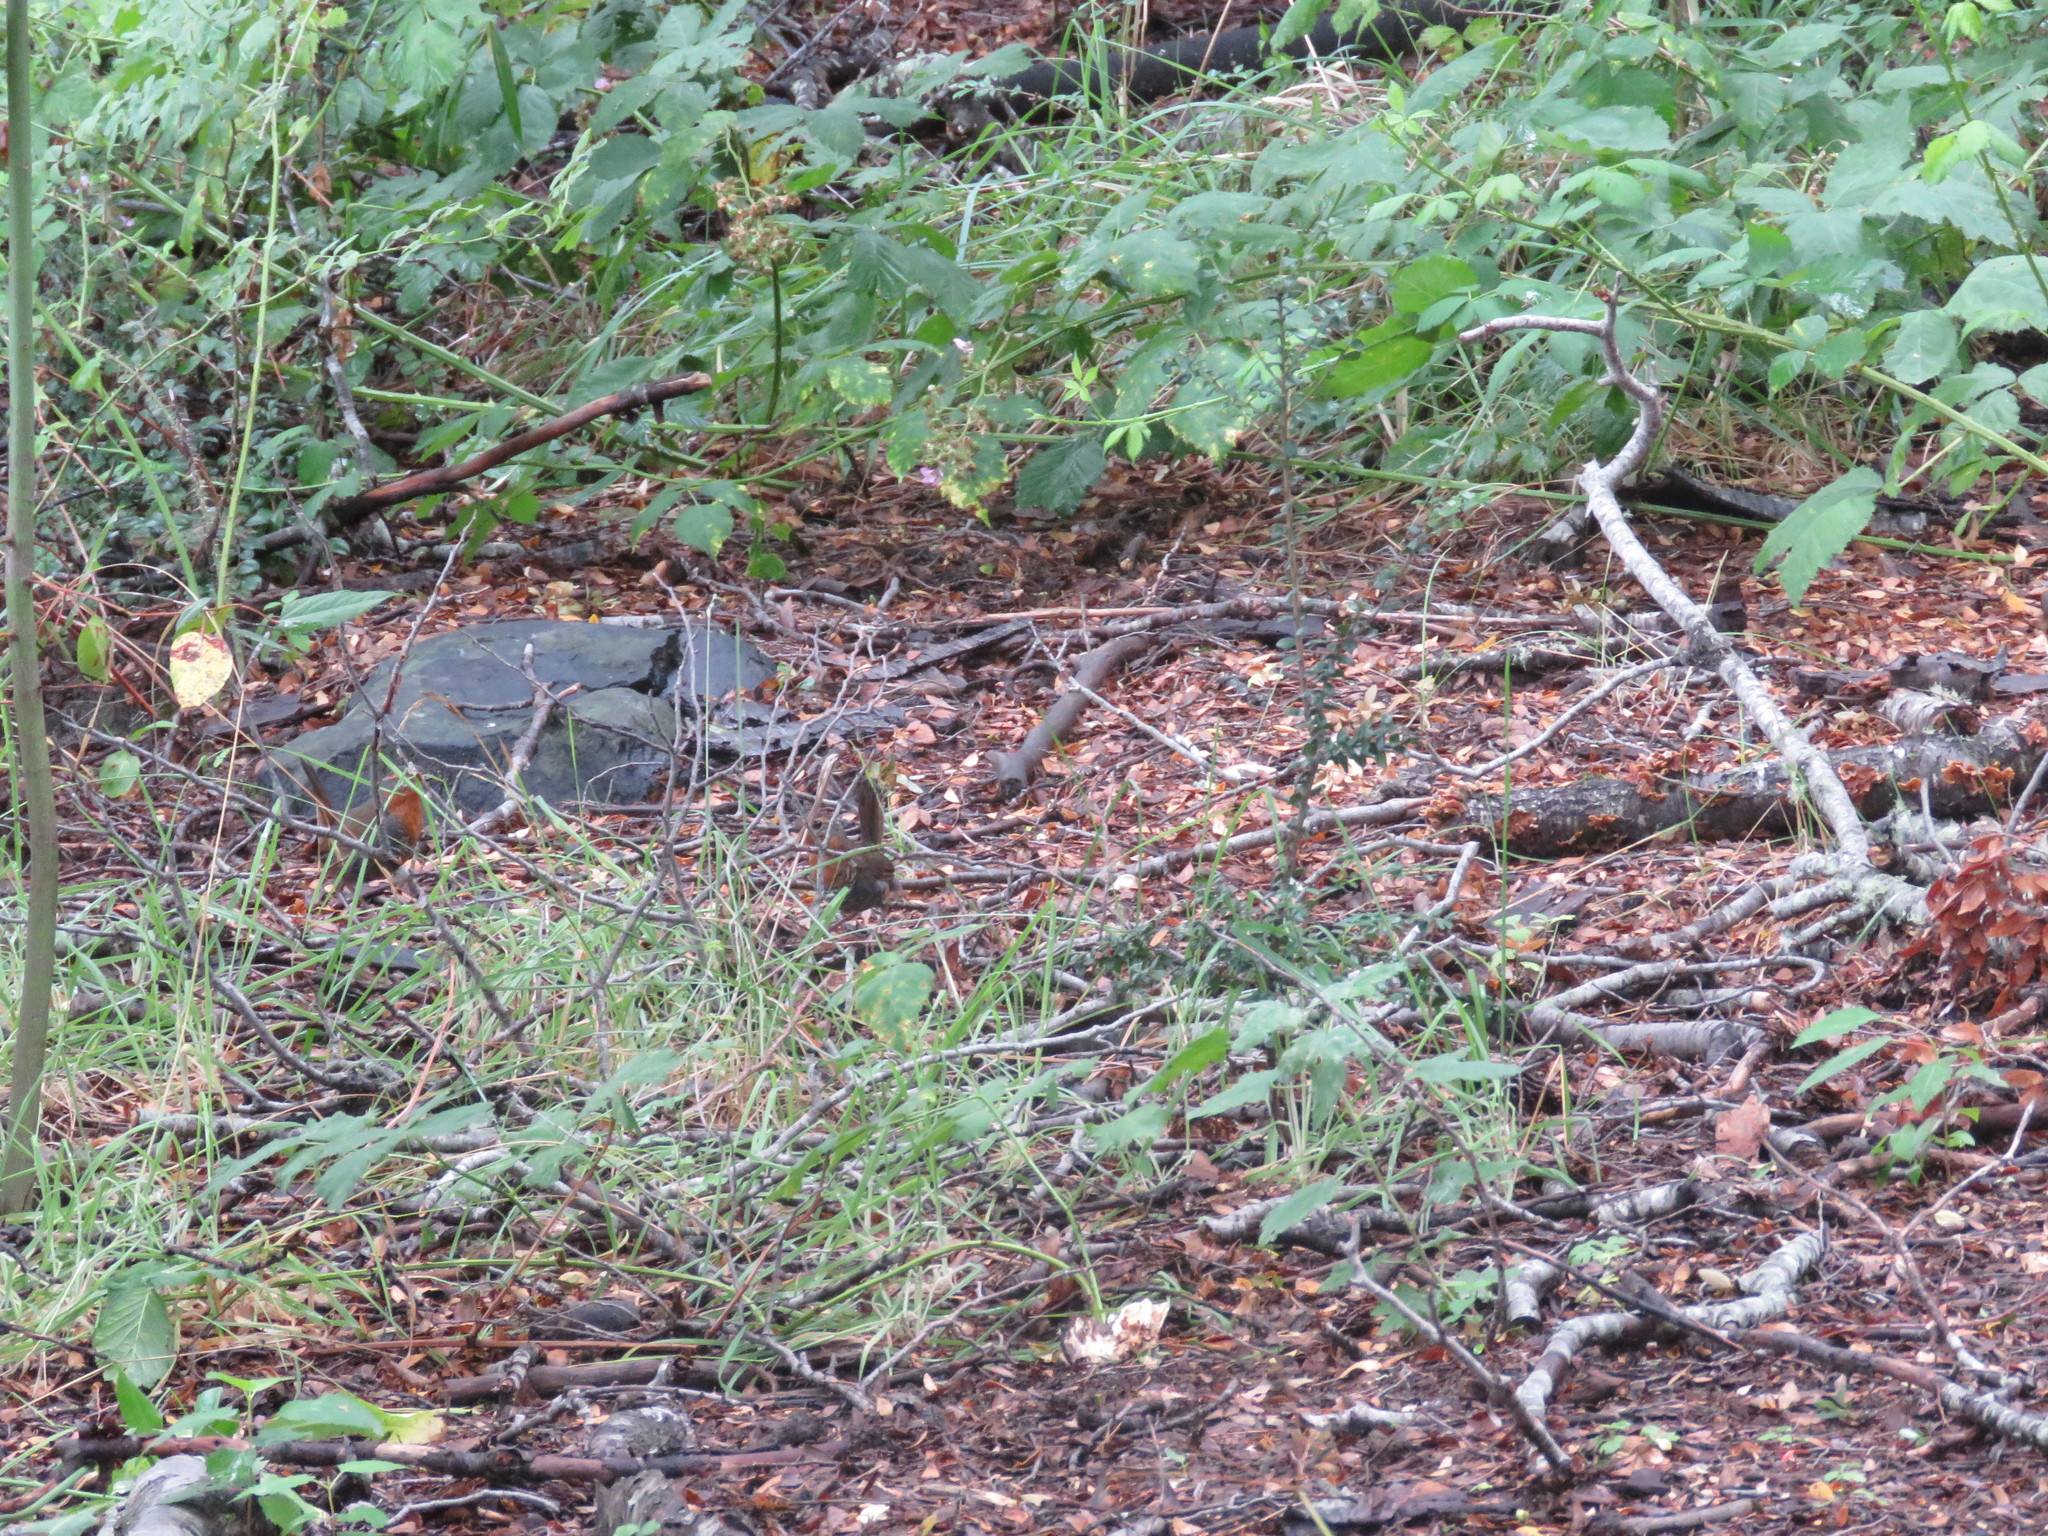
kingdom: Animalia
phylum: Chordata
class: Aves
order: Passeriformes
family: Rhinocryptidae
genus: Scelorchilus
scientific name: Scelorchilus rubecula
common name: Chucao tapaculo
